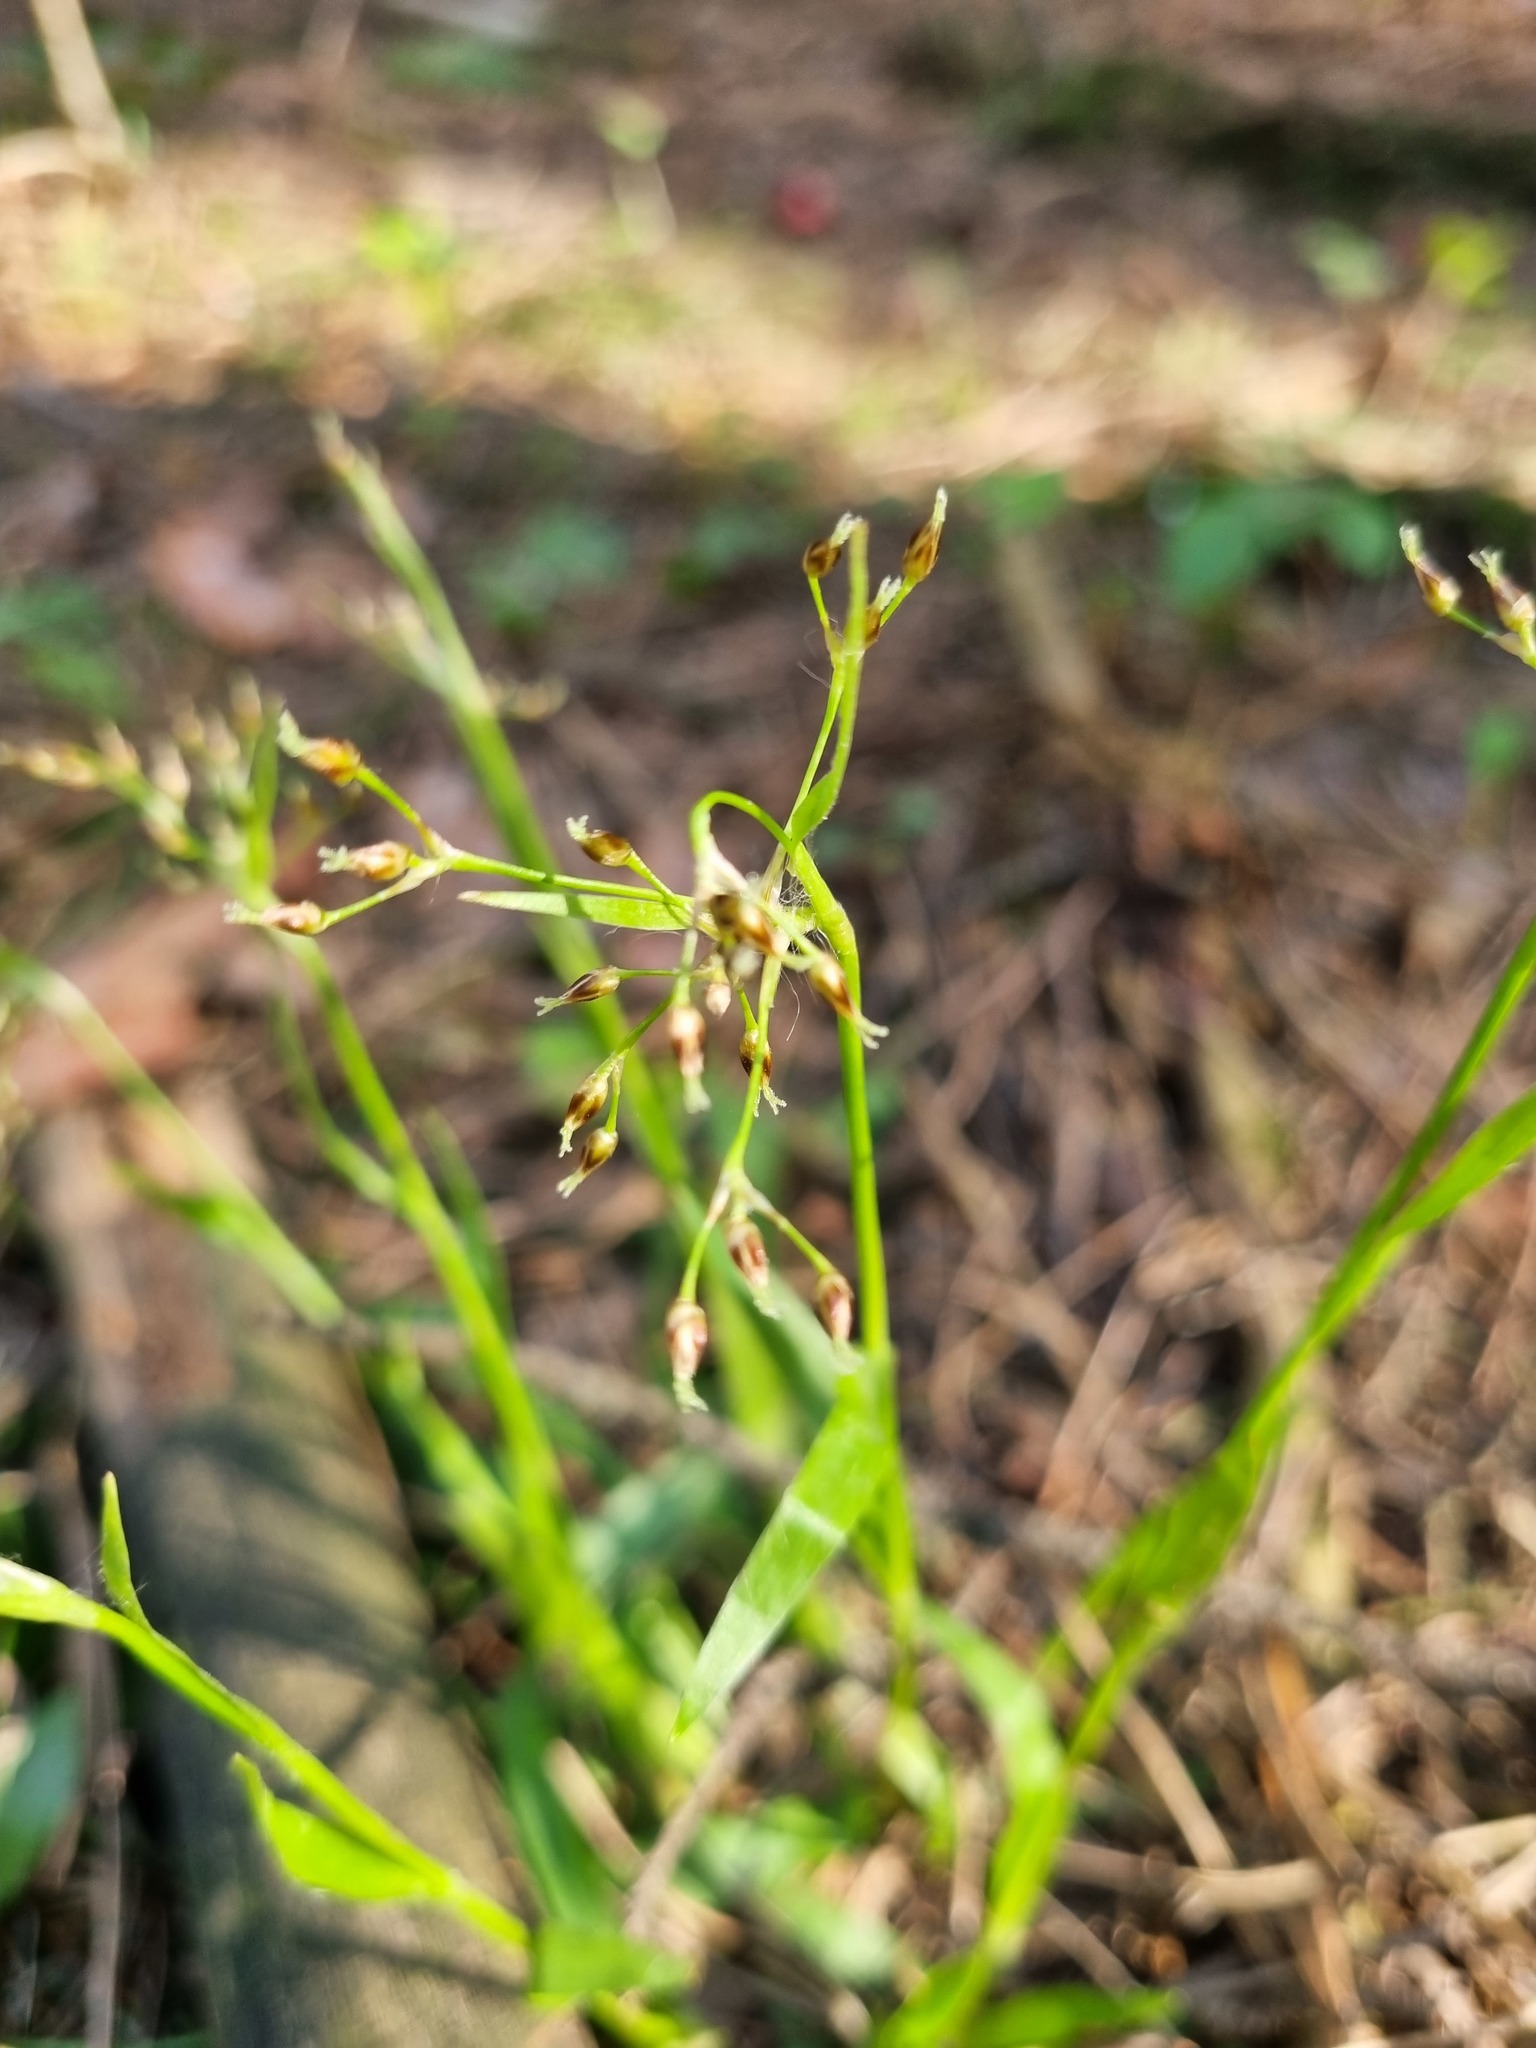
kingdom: Plantae
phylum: Tracheophyta
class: Liliopsida
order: Poales
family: Juncaceae
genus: Luzula
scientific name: Luzula pilosa
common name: Hairy wood-rush
